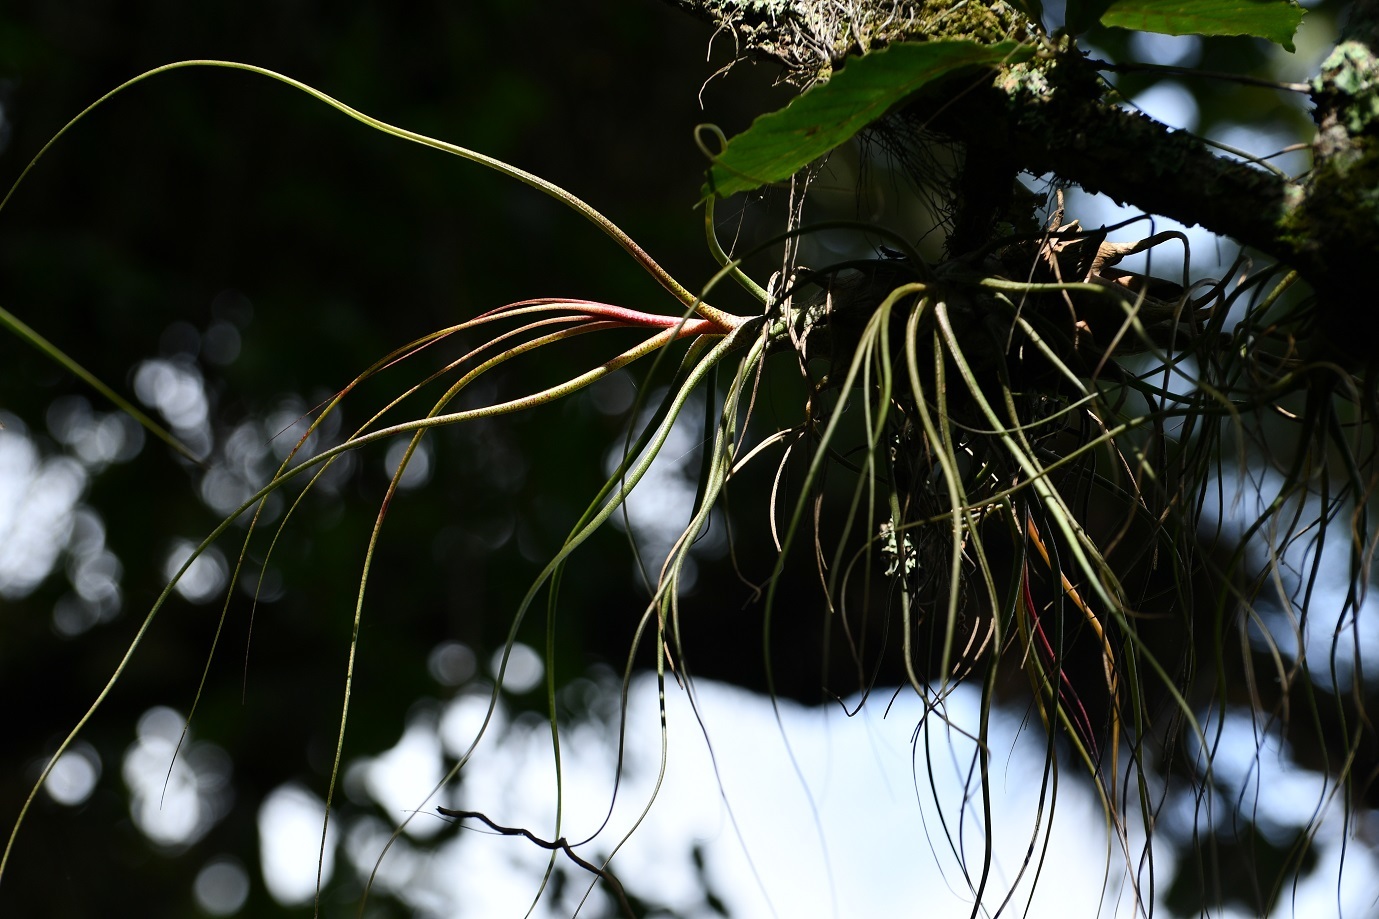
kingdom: Plantae
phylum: Tracheophyta
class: Liliopsida
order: Poales
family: Bromeliaceae
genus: Tillandsia
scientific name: Tillandsia butzii
